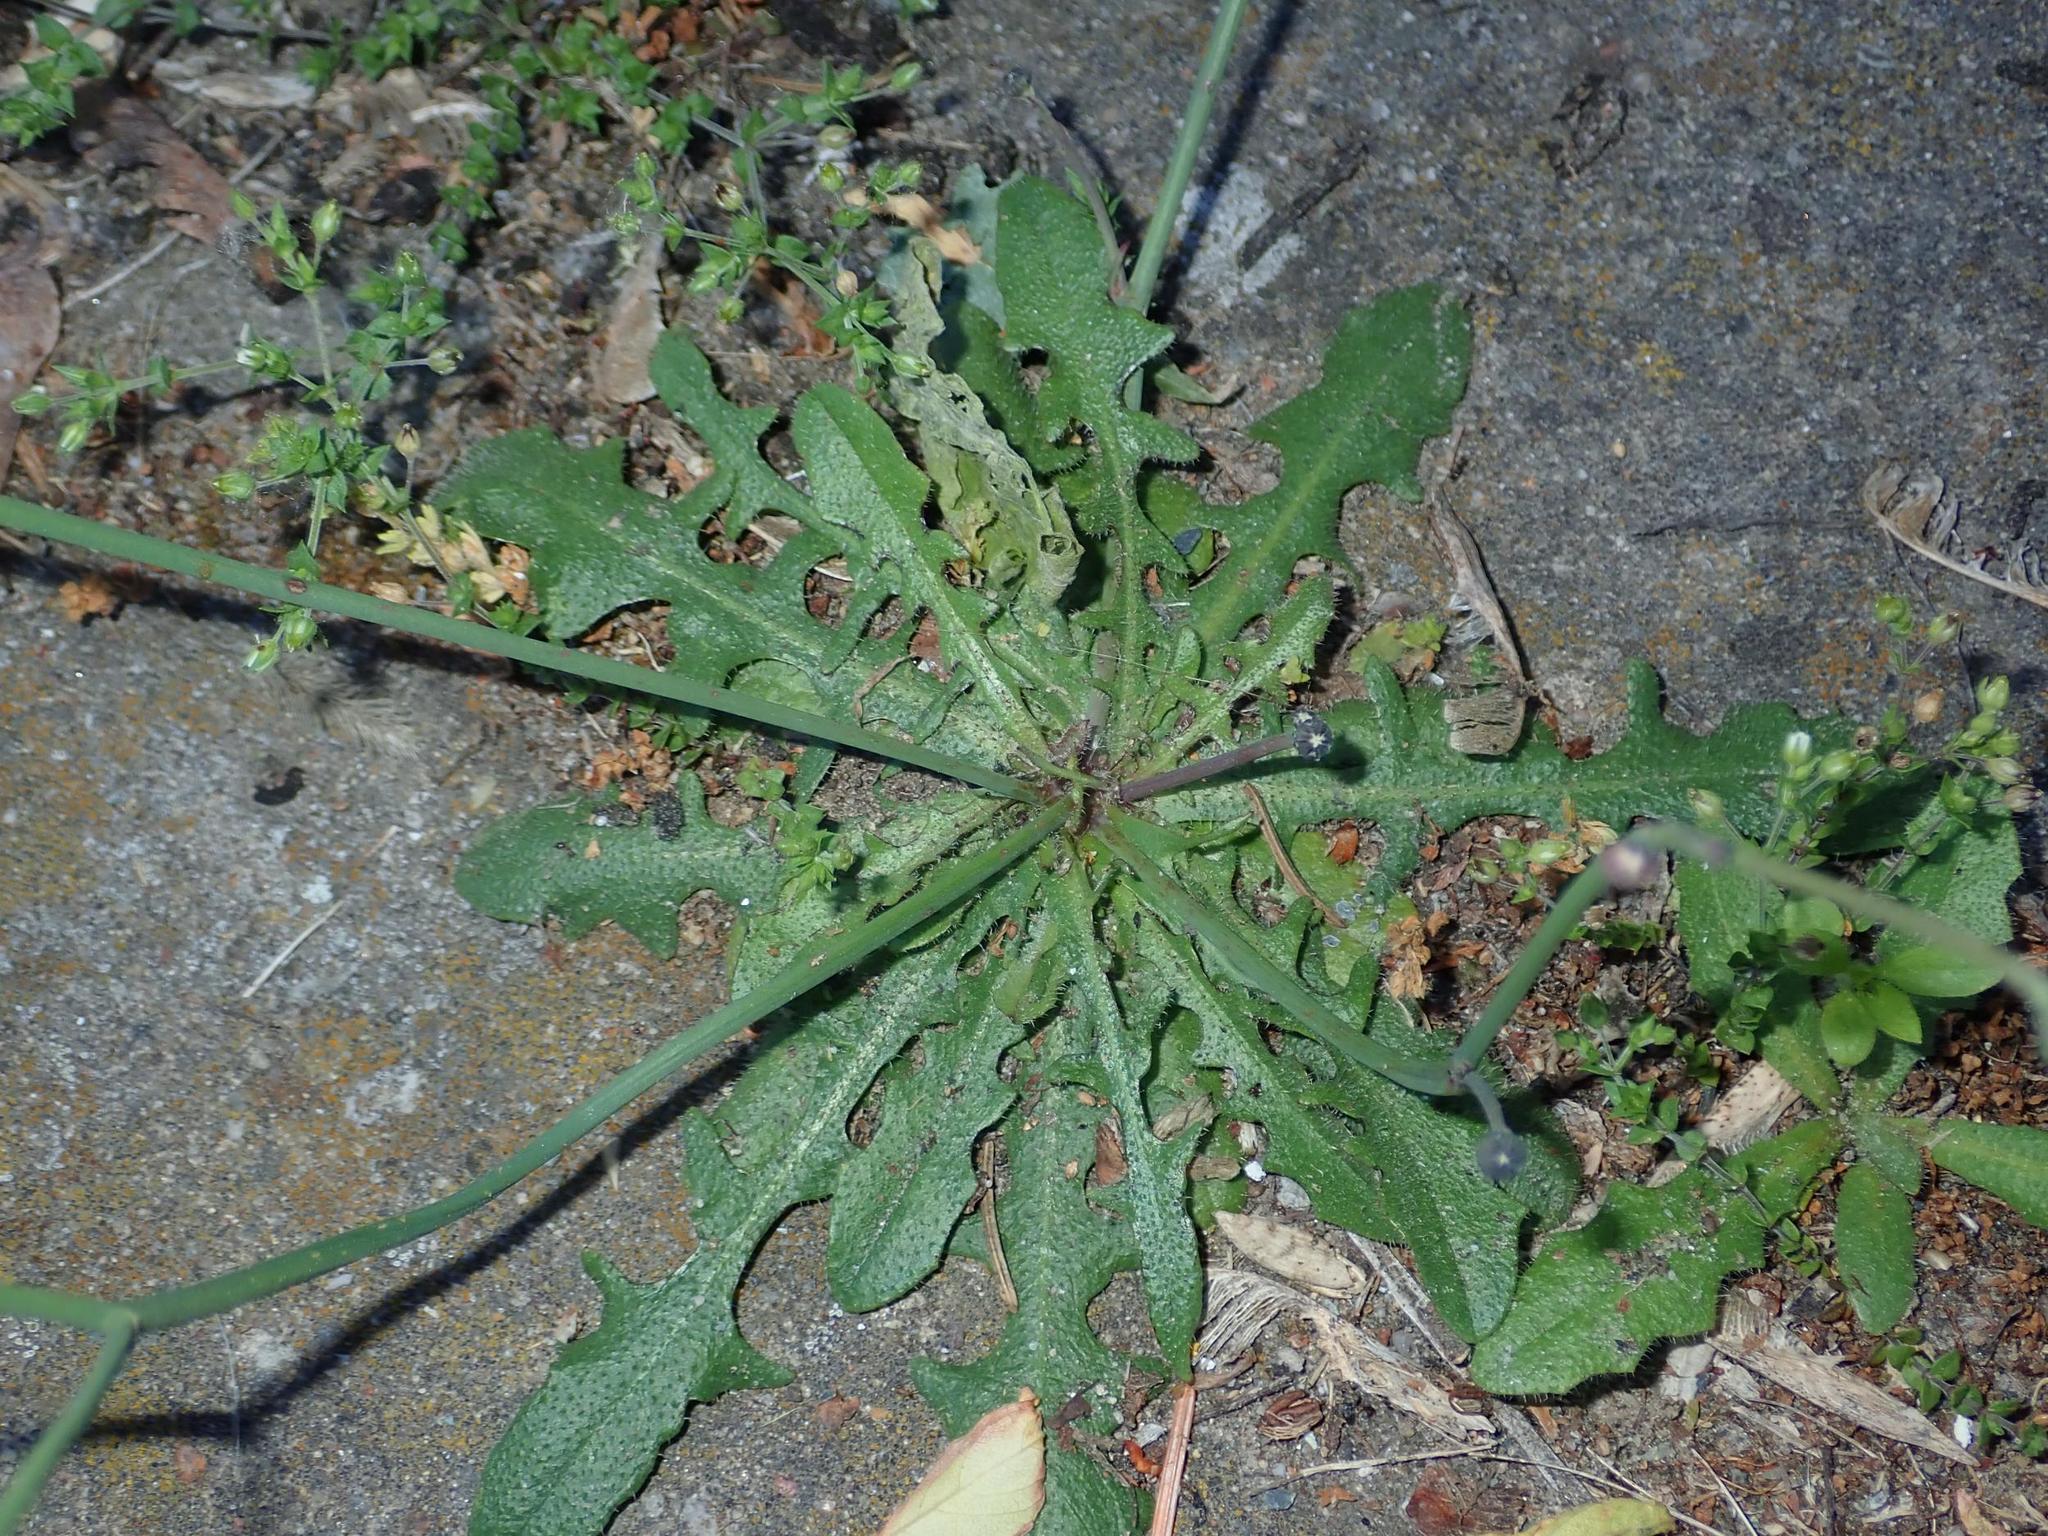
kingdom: Plantae
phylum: Tracheophyta
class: Magnoliopsida
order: Asterales
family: Asteraceae
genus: Hypochaeris
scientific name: Hypochaeris radicata
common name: Flatweed
